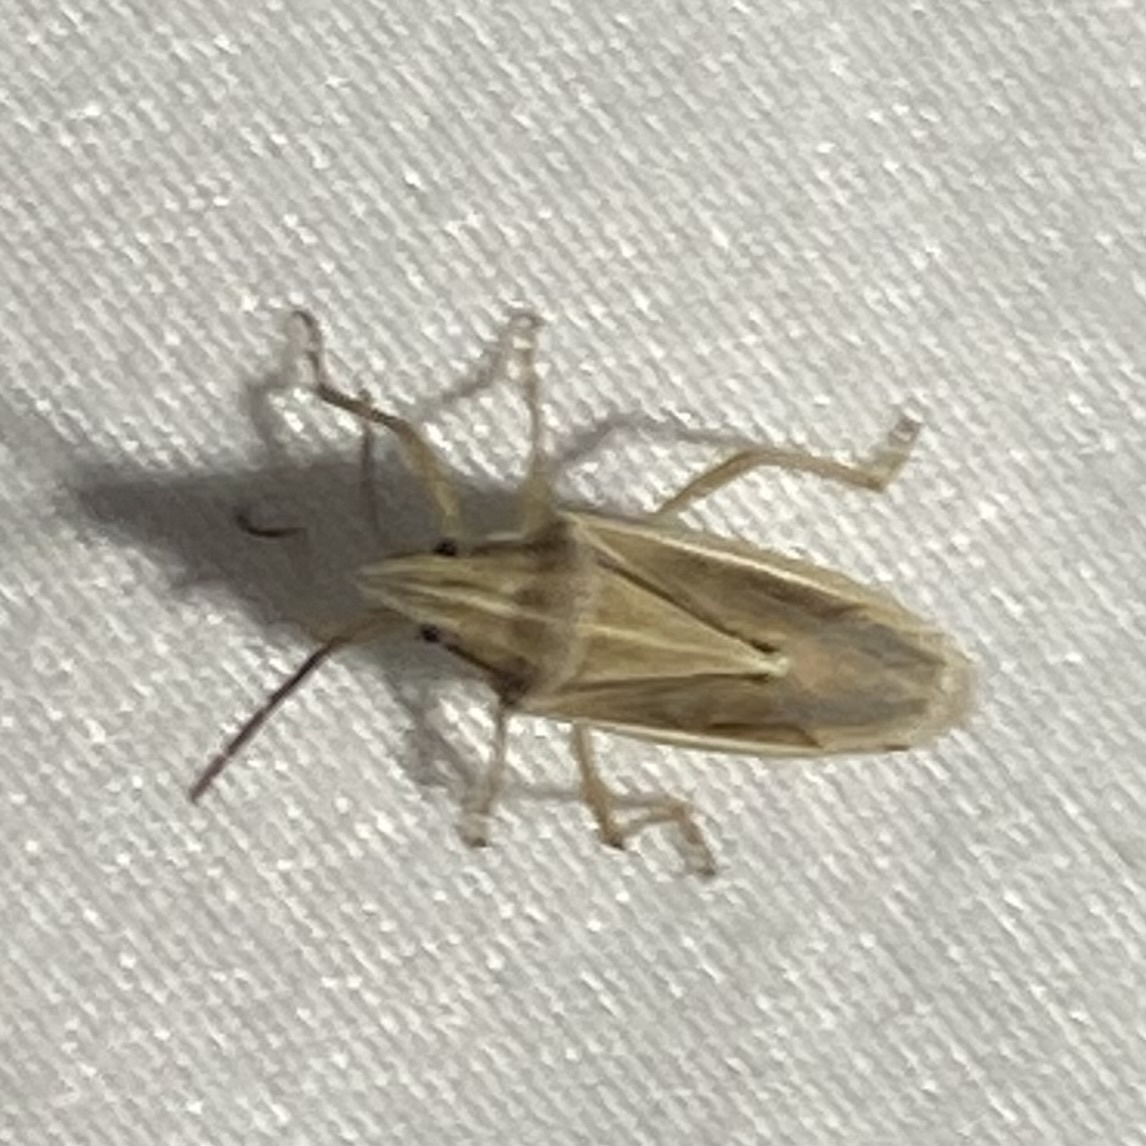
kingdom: Animalia
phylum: Arthropoda
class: Insecta
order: Hemiptera
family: Pentatomidae
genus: Mecidea
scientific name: Mecidea
